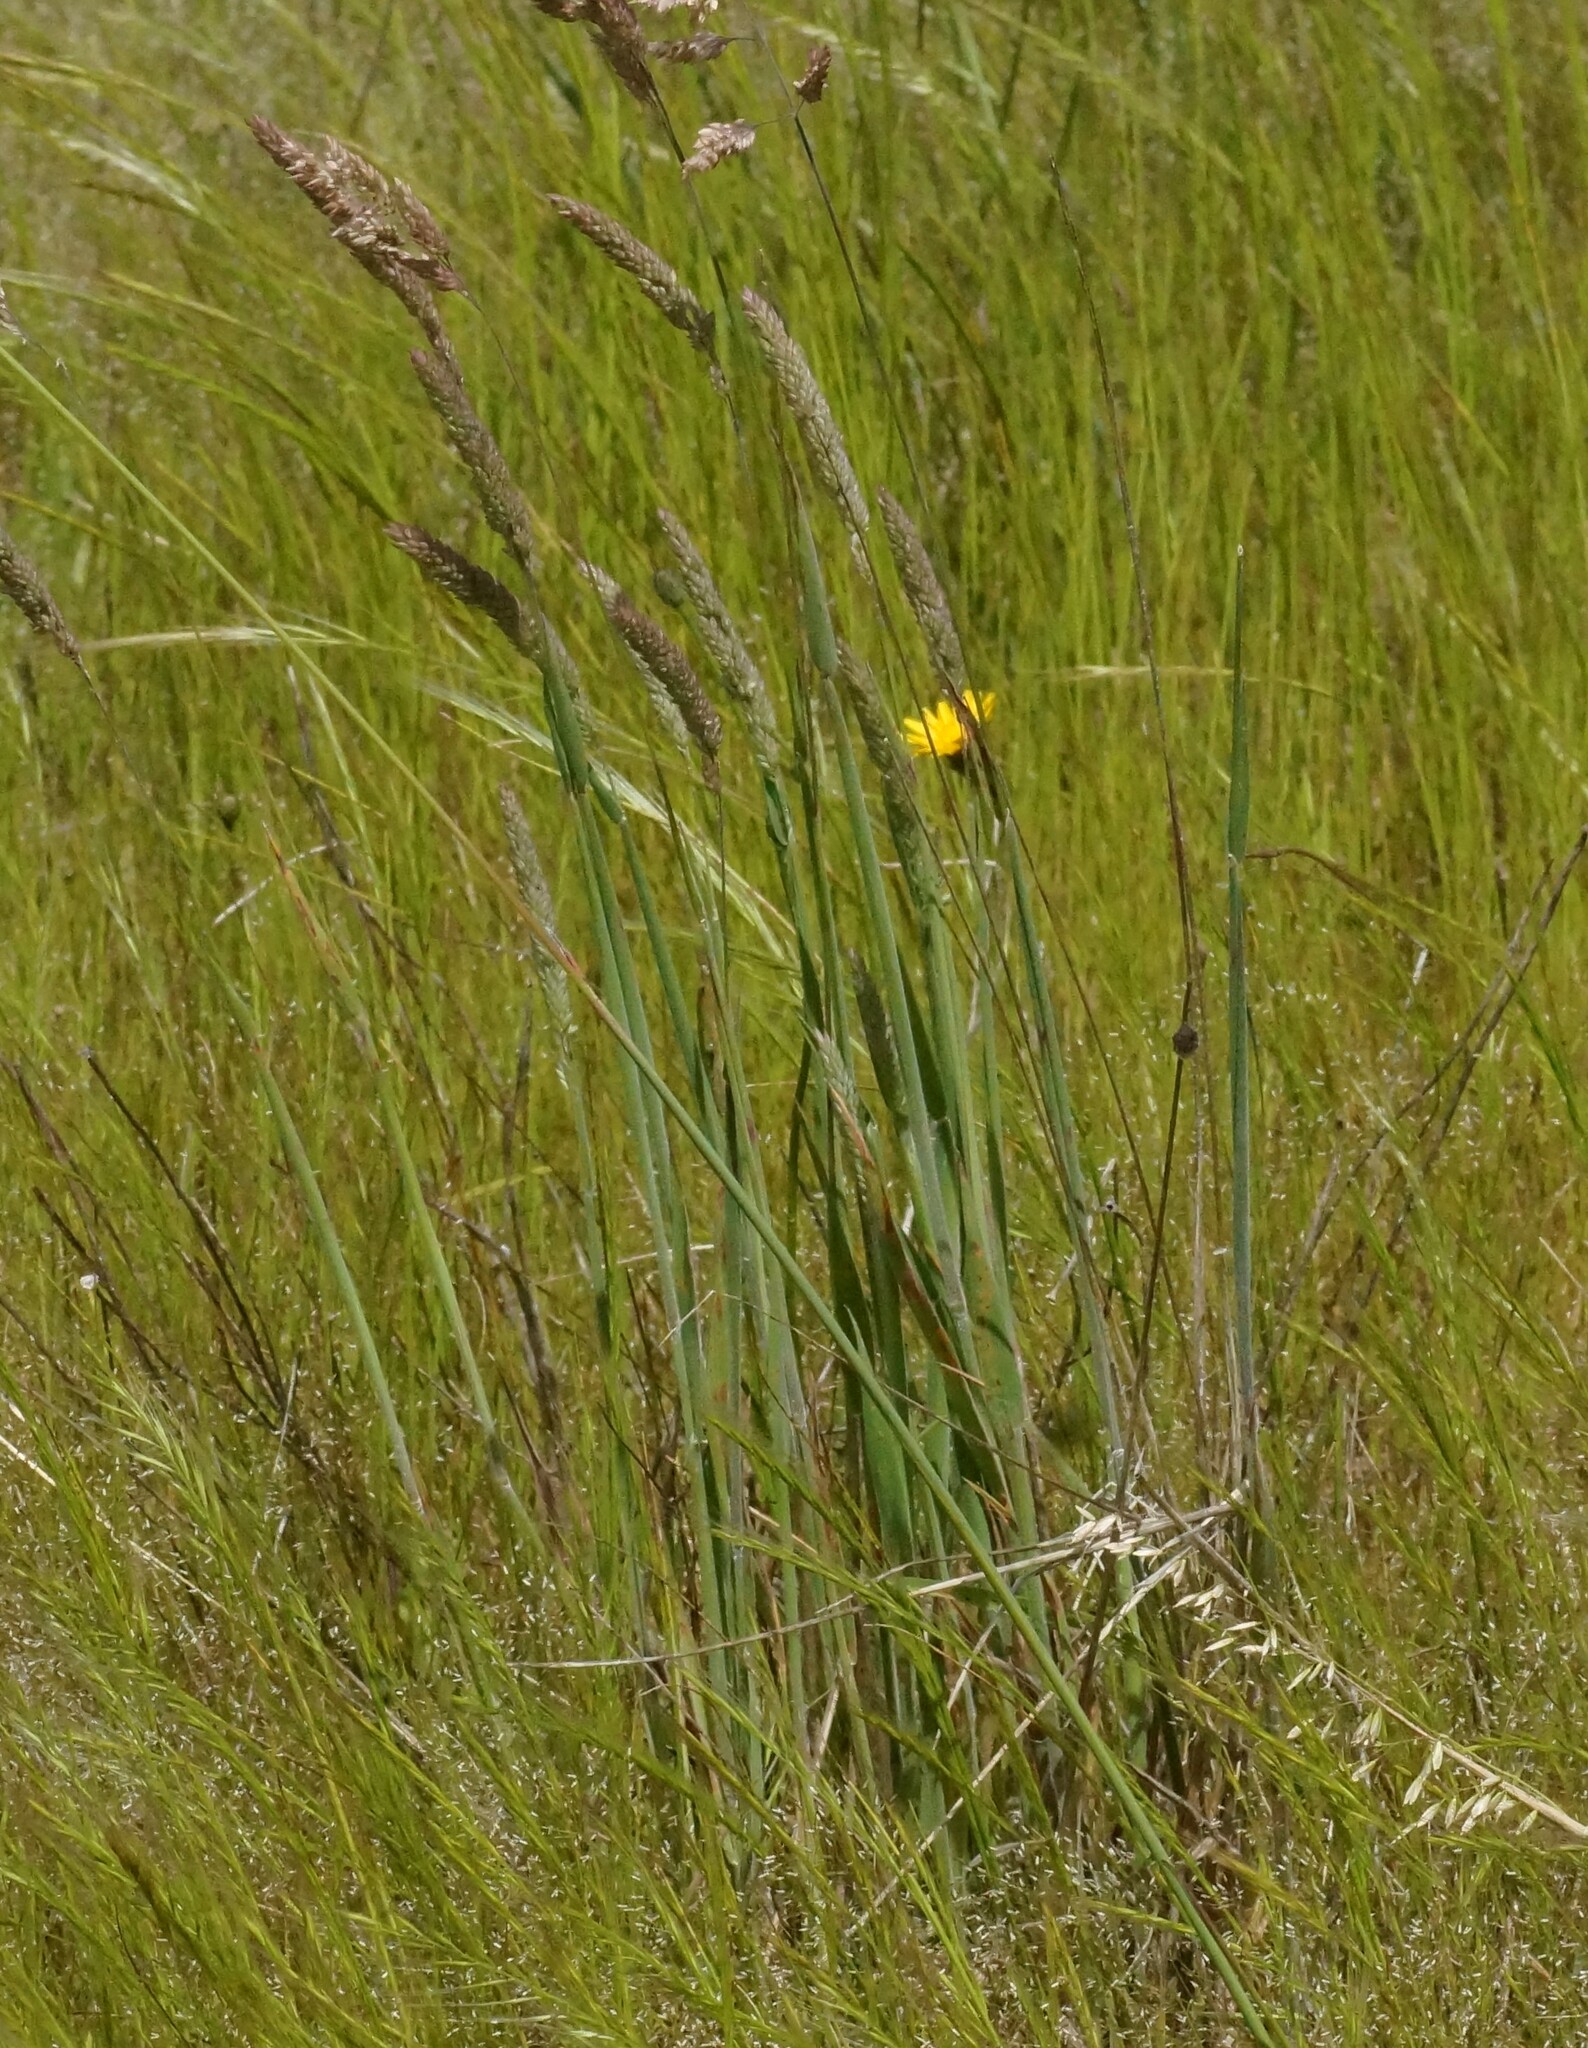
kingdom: Plantae
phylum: Tracheophyta
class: Liliopsida
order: Poales
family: Poaceae
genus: Holcus
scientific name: Holcus lanatus
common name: Yorkshire-fog
